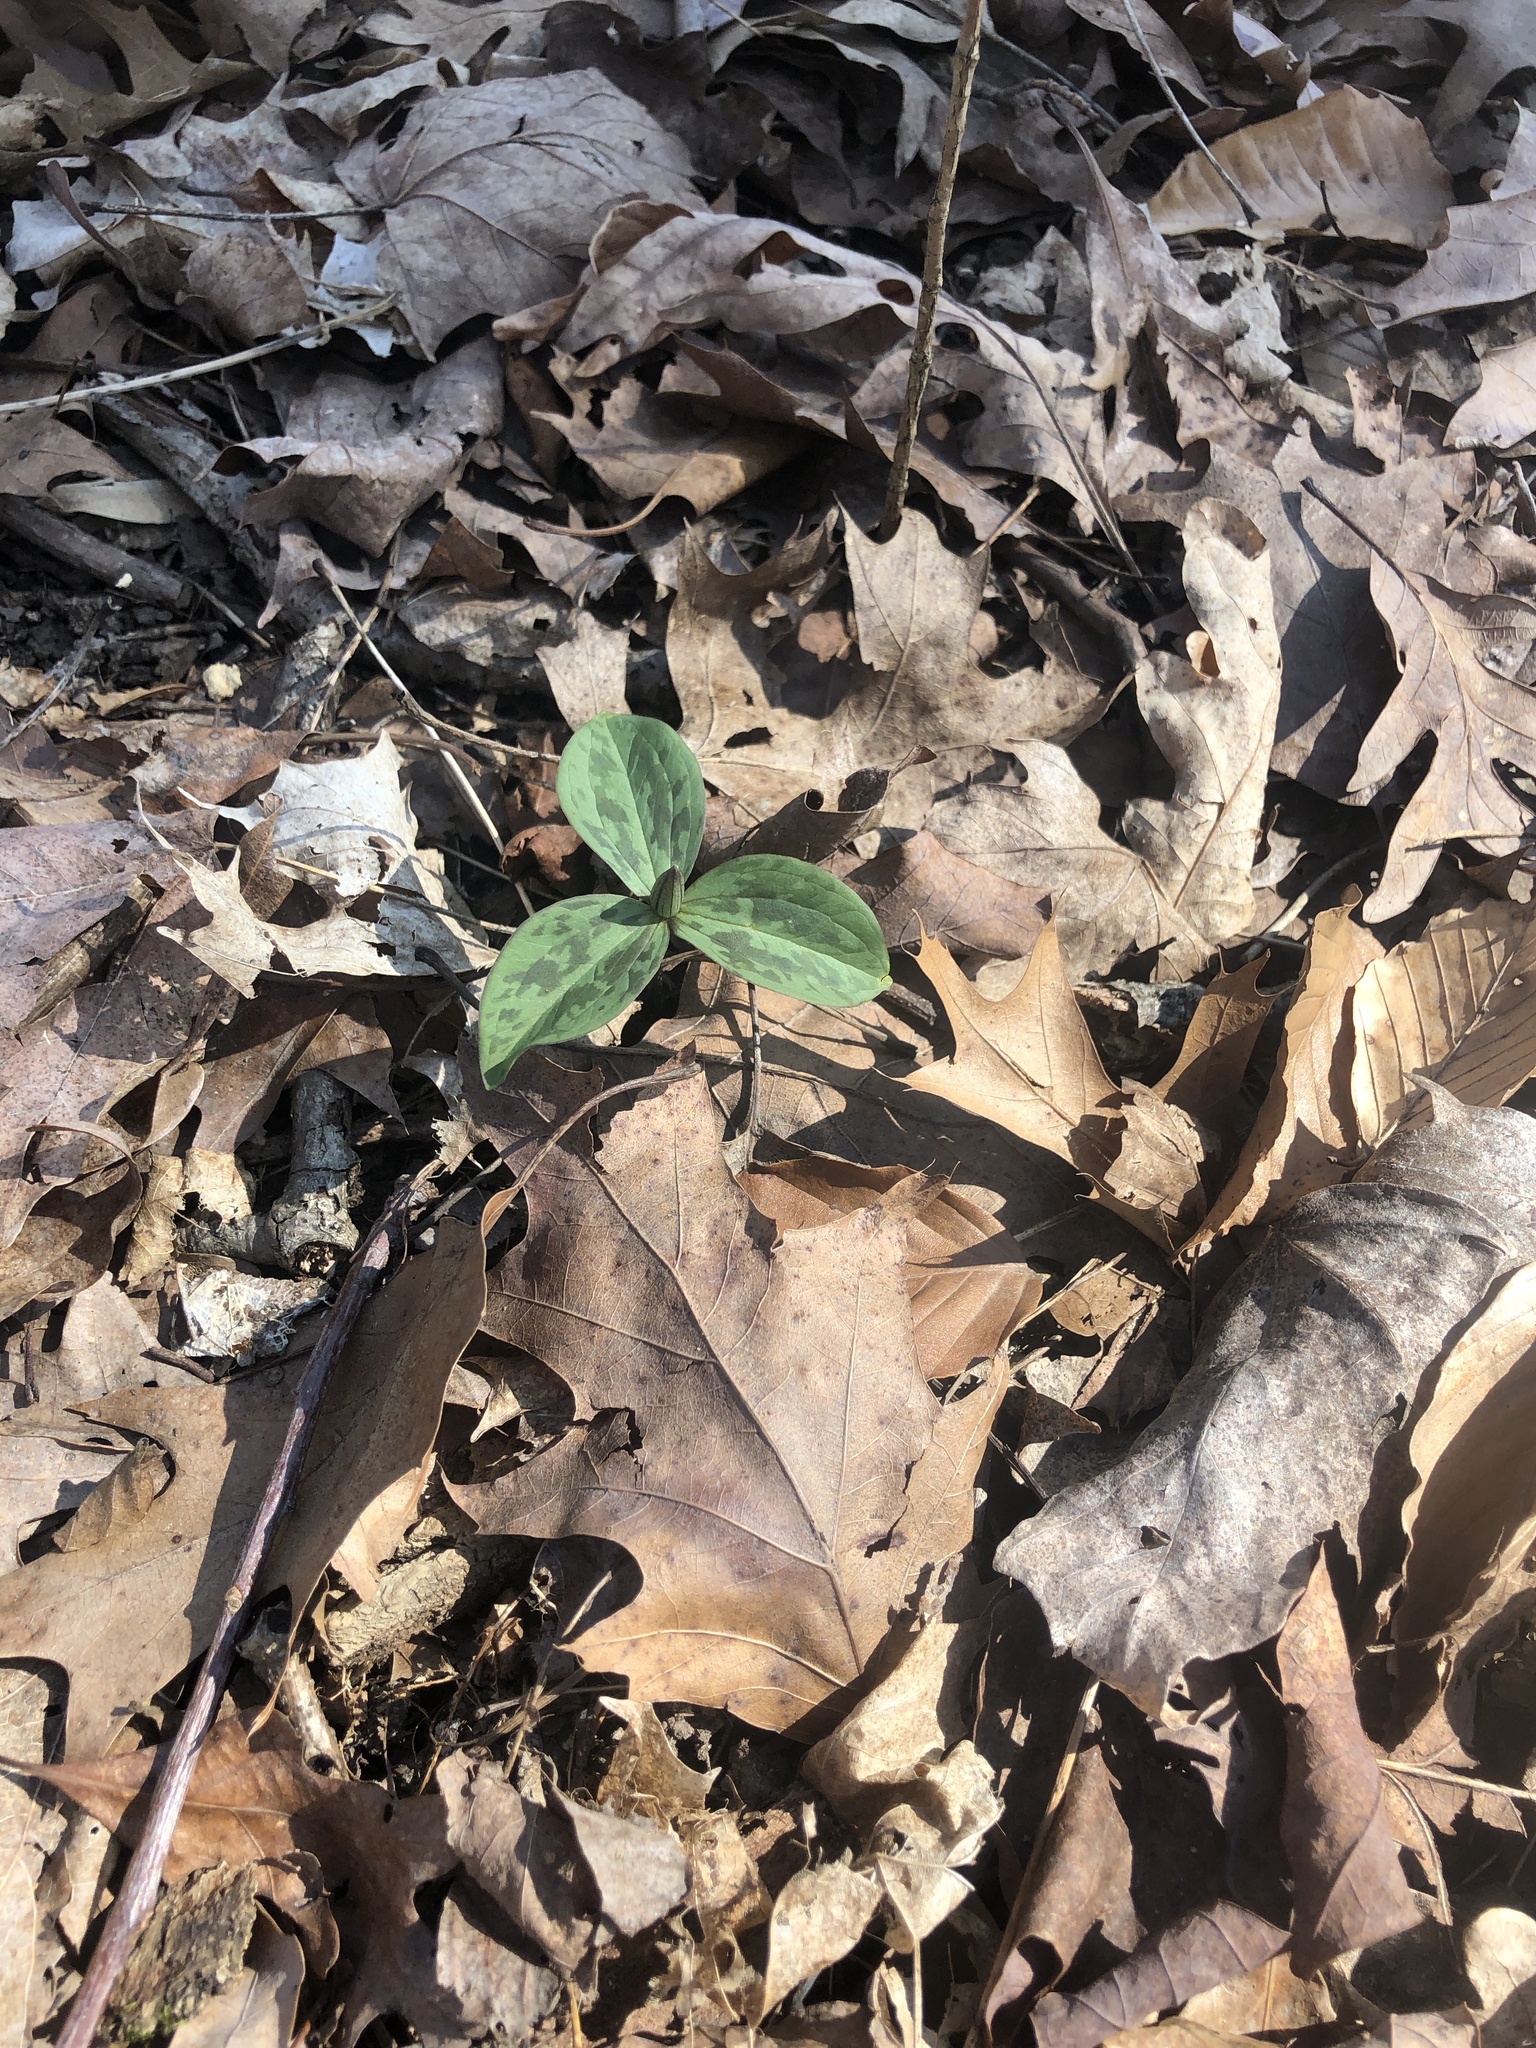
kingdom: Plantae
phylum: Tracheophyta
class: Liliopsida
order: Liliales
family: Melanthiaceae
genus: Trillium
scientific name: Trillium sessile
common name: Sessile trillium
